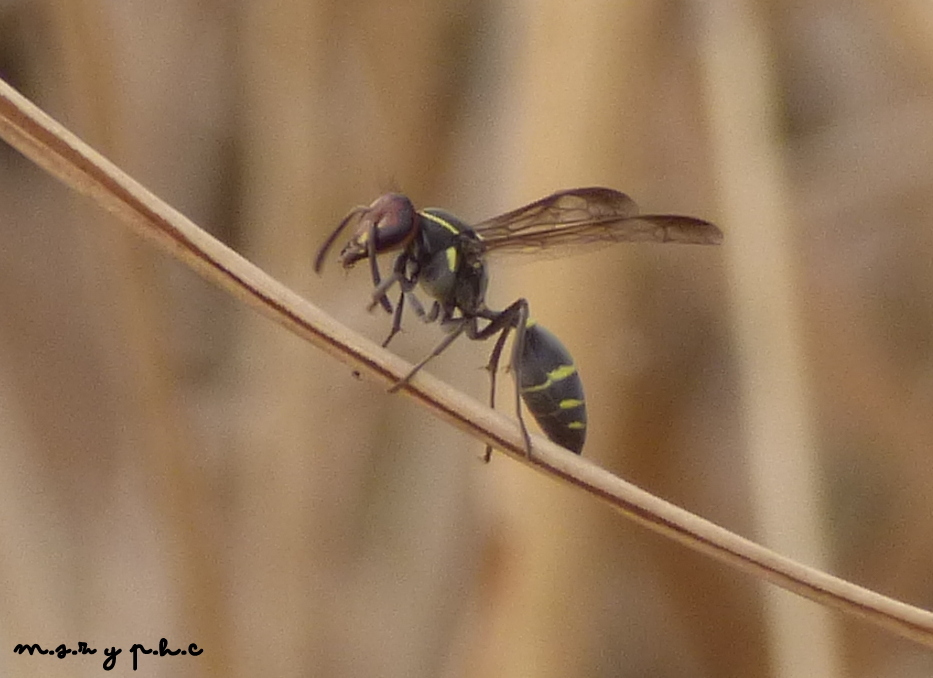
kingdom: Animalia
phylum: Arthropoda
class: Insecta
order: Hymenoptera
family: Eumenidae
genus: Polybia
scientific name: Polybia ruficeps
